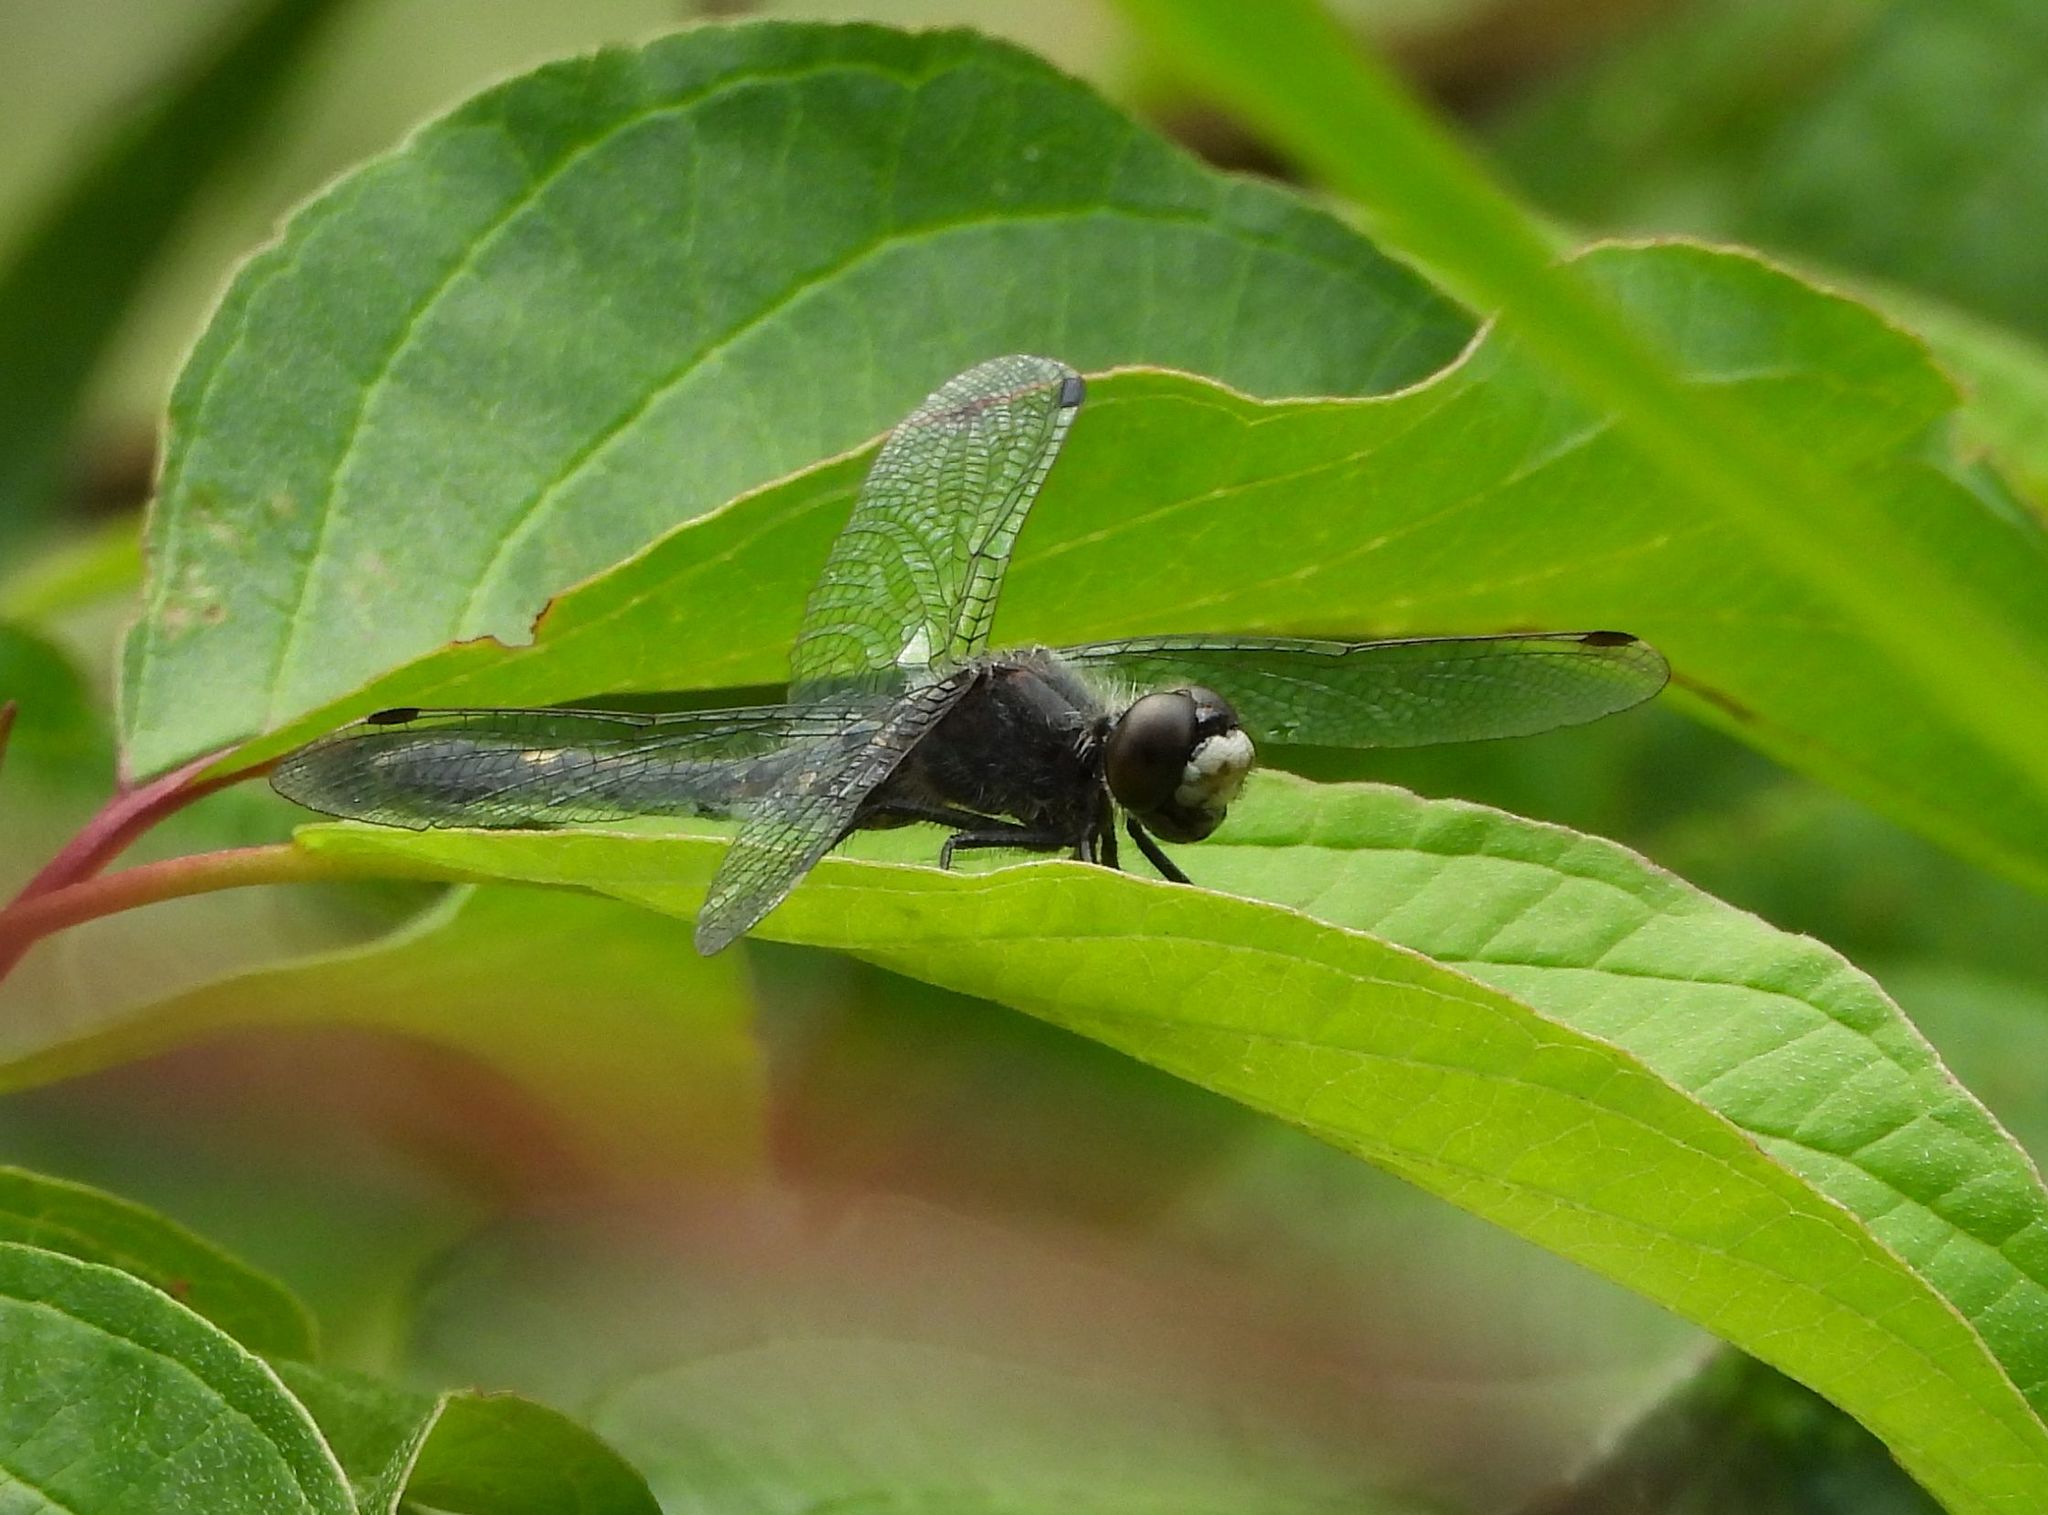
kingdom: Animalia
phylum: Arthropoda
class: Insecta
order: Odonata
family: Libellulidae
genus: Leucorrhinia
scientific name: Leucorrhinia intacta
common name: Dot-tailed whiteface
